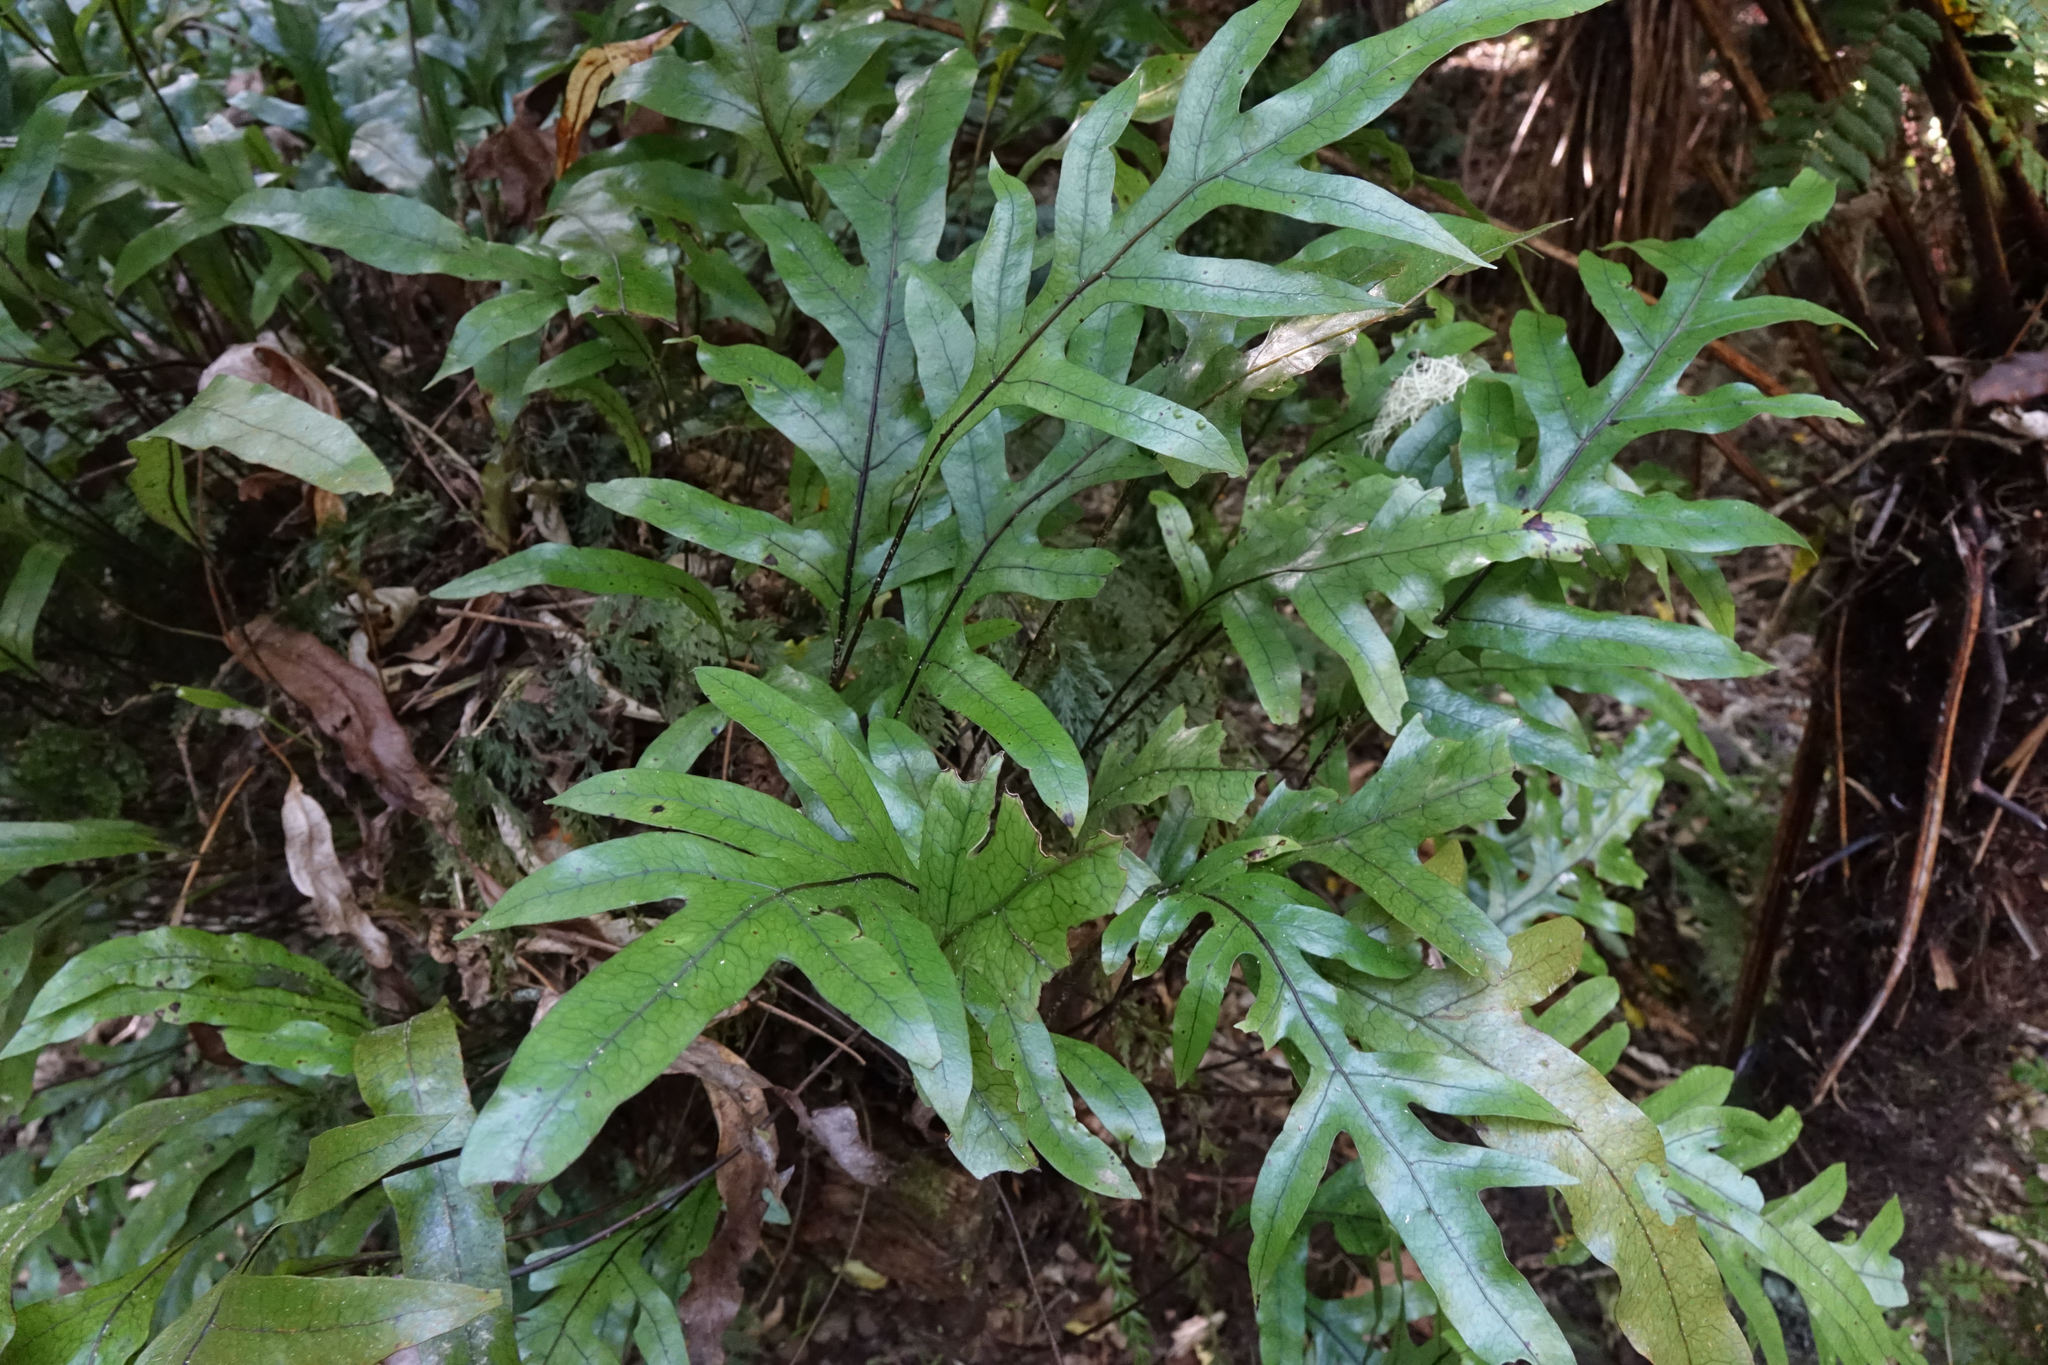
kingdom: Plantae
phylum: Tracheophyta
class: Polypodiopsida
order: Polypodiales
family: Polypodiaceae
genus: Lecanopteris
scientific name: Lecanopteris pustulata
